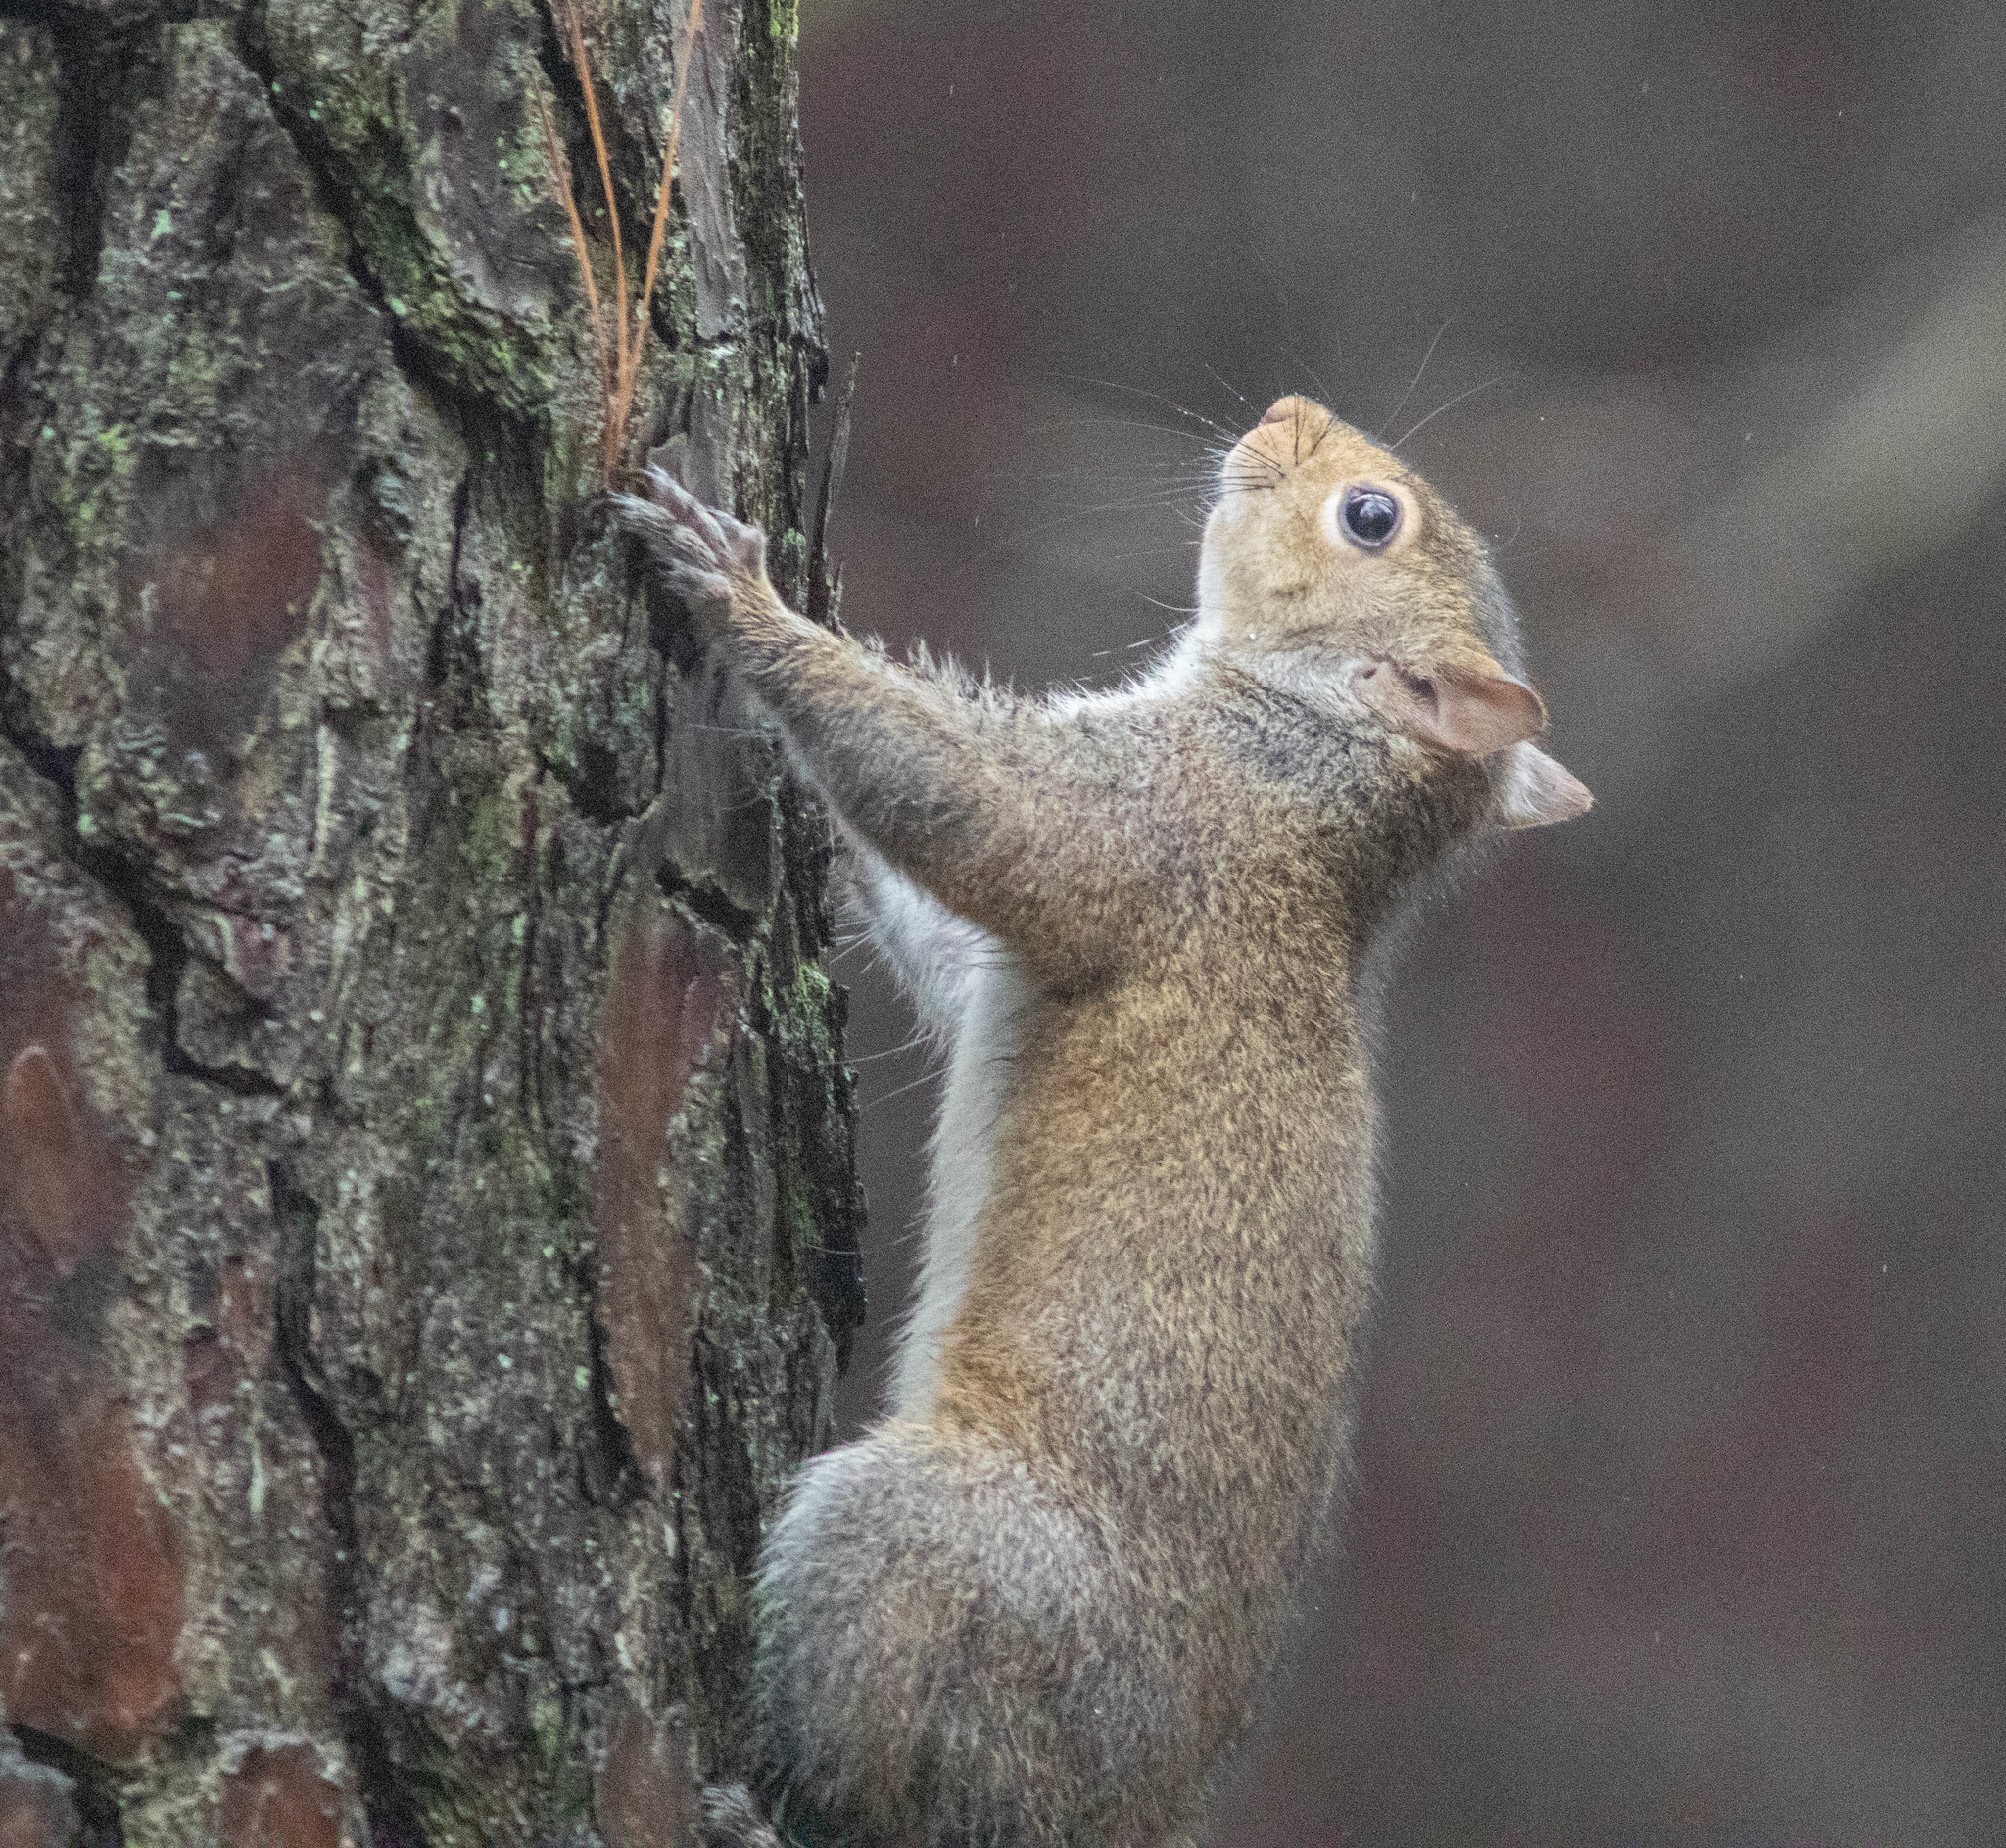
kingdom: Animalia
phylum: Chordata
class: Mammalia
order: Rodentia
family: Sciuridae
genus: Sciurus
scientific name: Sciurus carolinensis
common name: Eastern gray squirrel
